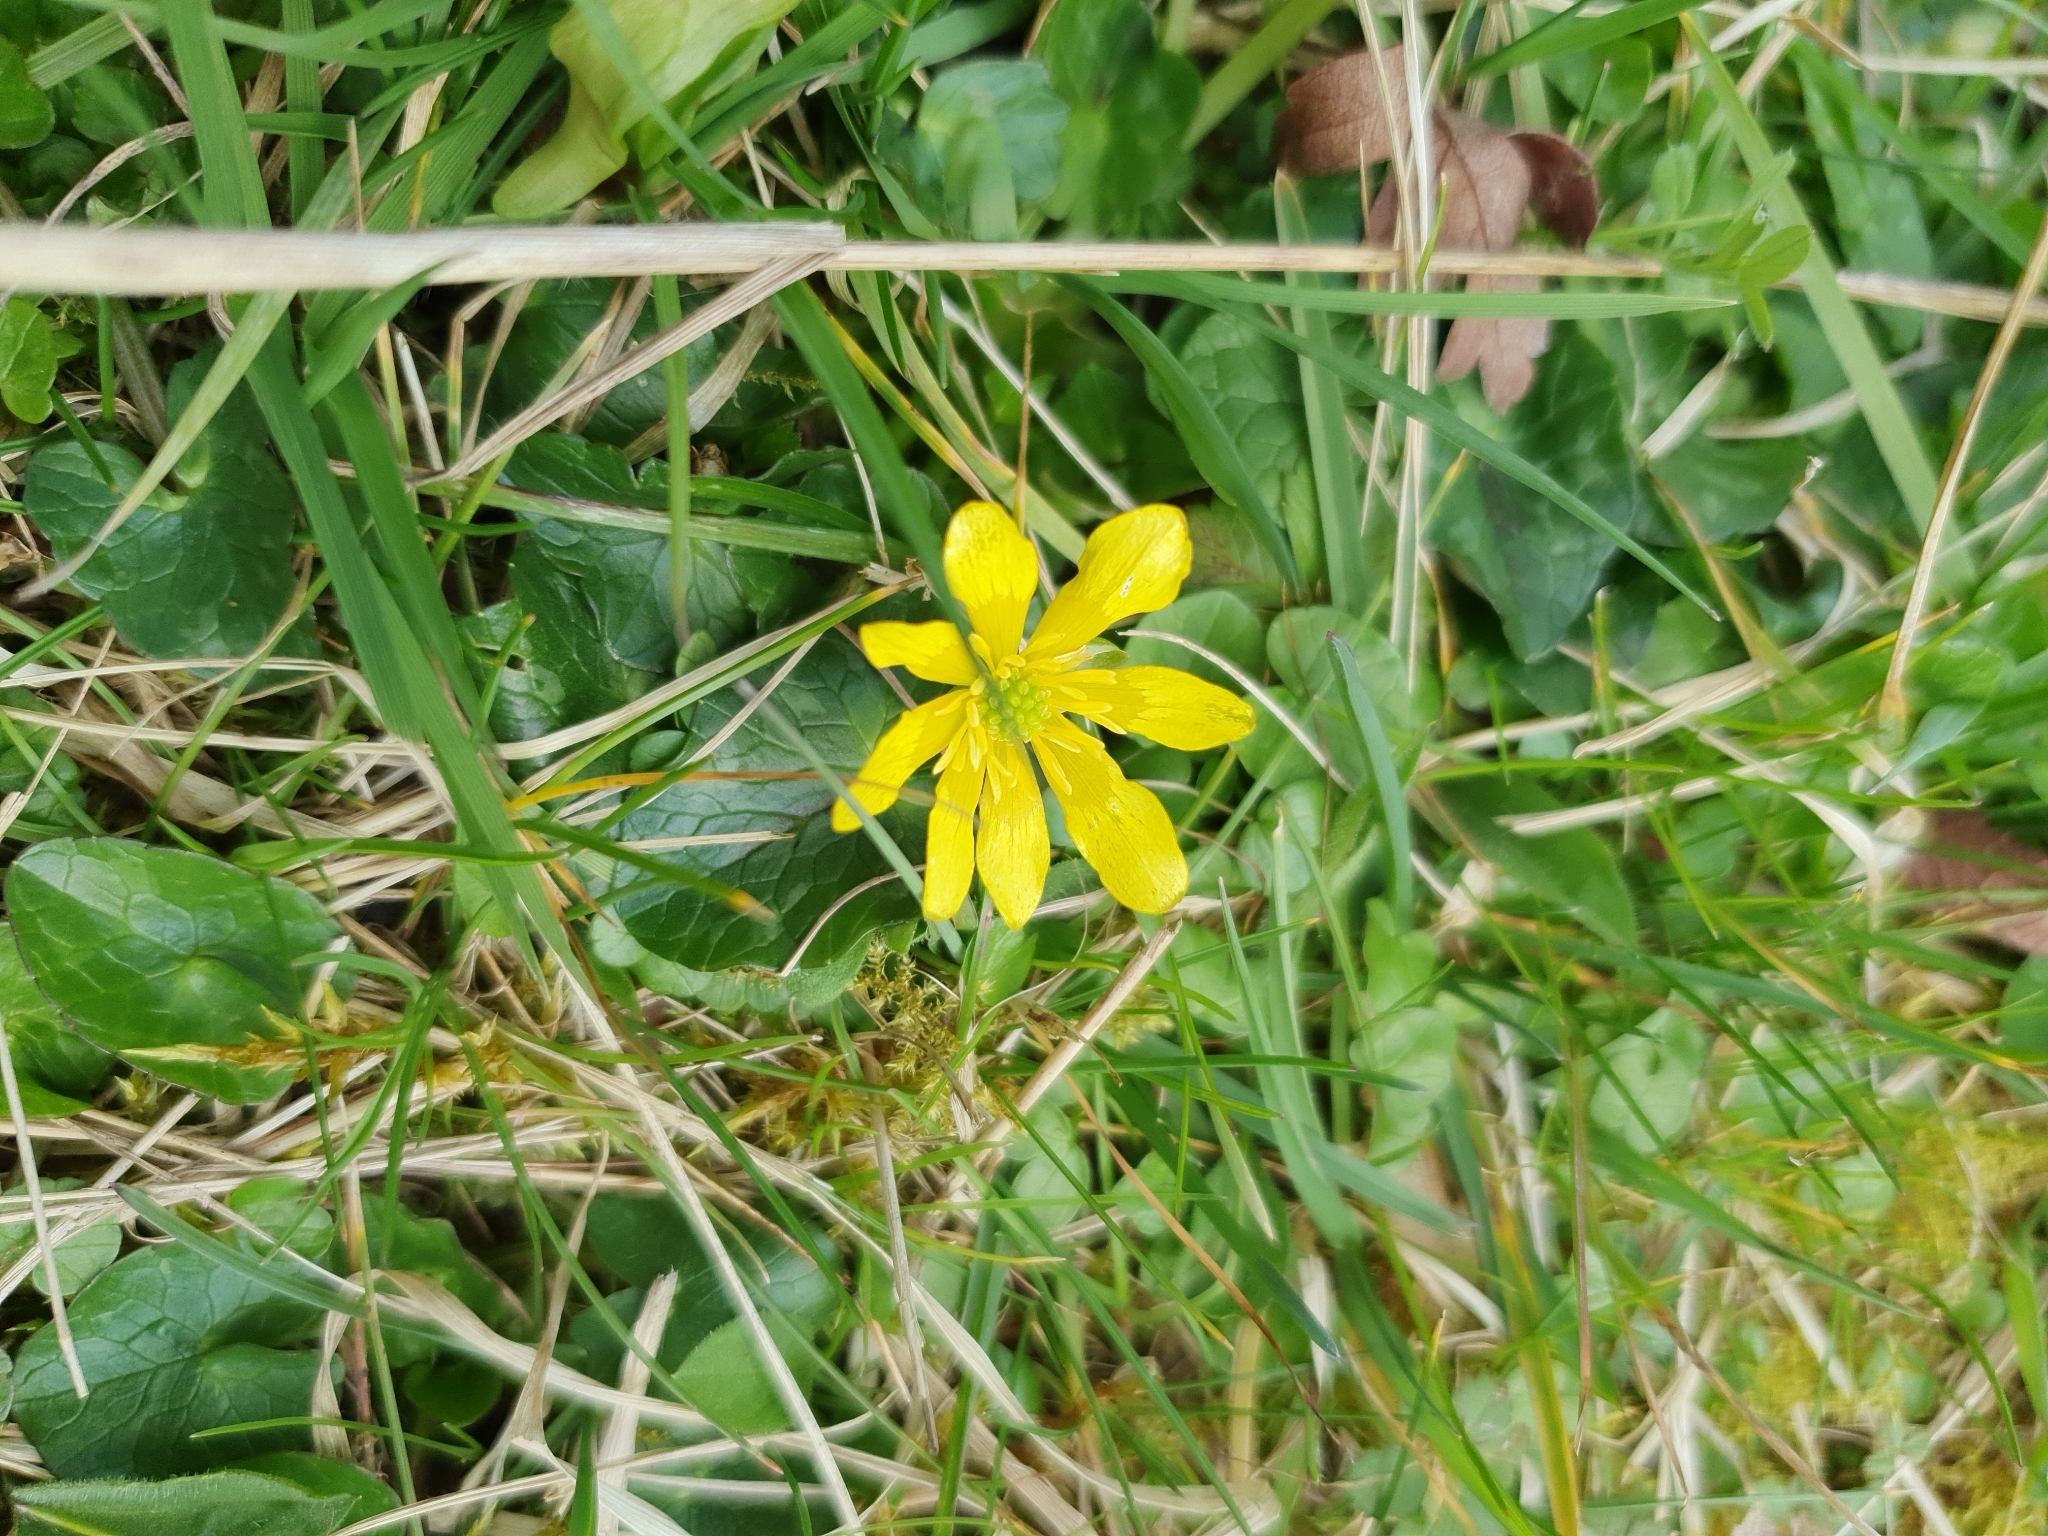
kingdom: Plantae
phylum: Tracheophyta
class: Magnoliopsida
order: Ranunculales
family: Ranunculaceae
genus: Ficaria
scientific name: Ficaria verna
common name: Lesser celandine
